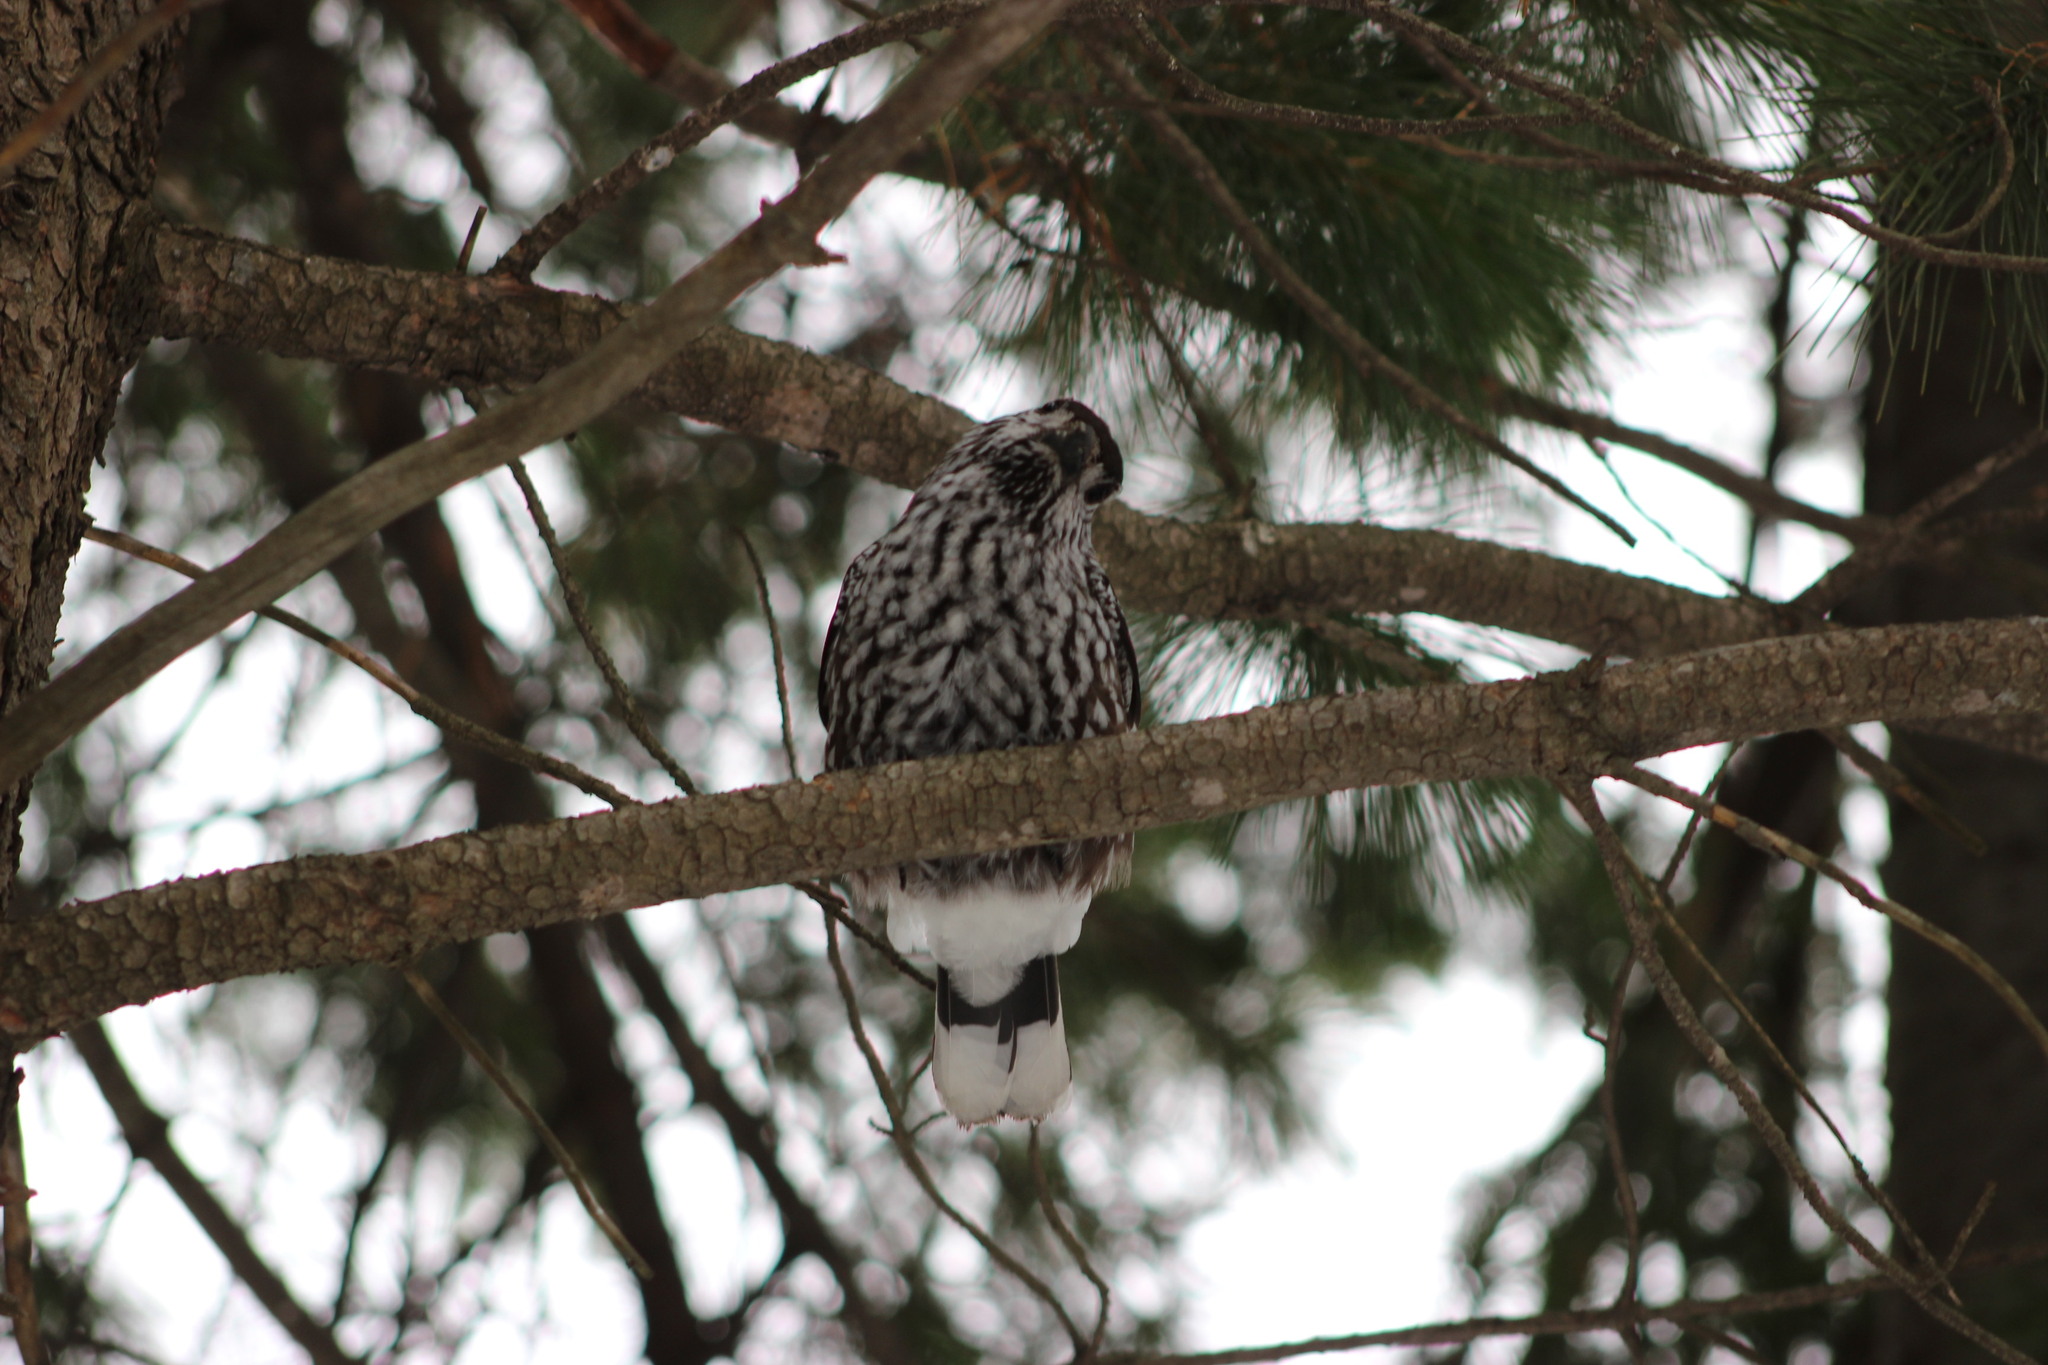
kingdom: Animalia
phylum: Chordata
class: Aves
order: Passeriformes
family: Corvidae
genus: Nucifraga
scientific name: Nucifraga caryocatactes
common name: Spotted nutcracker
